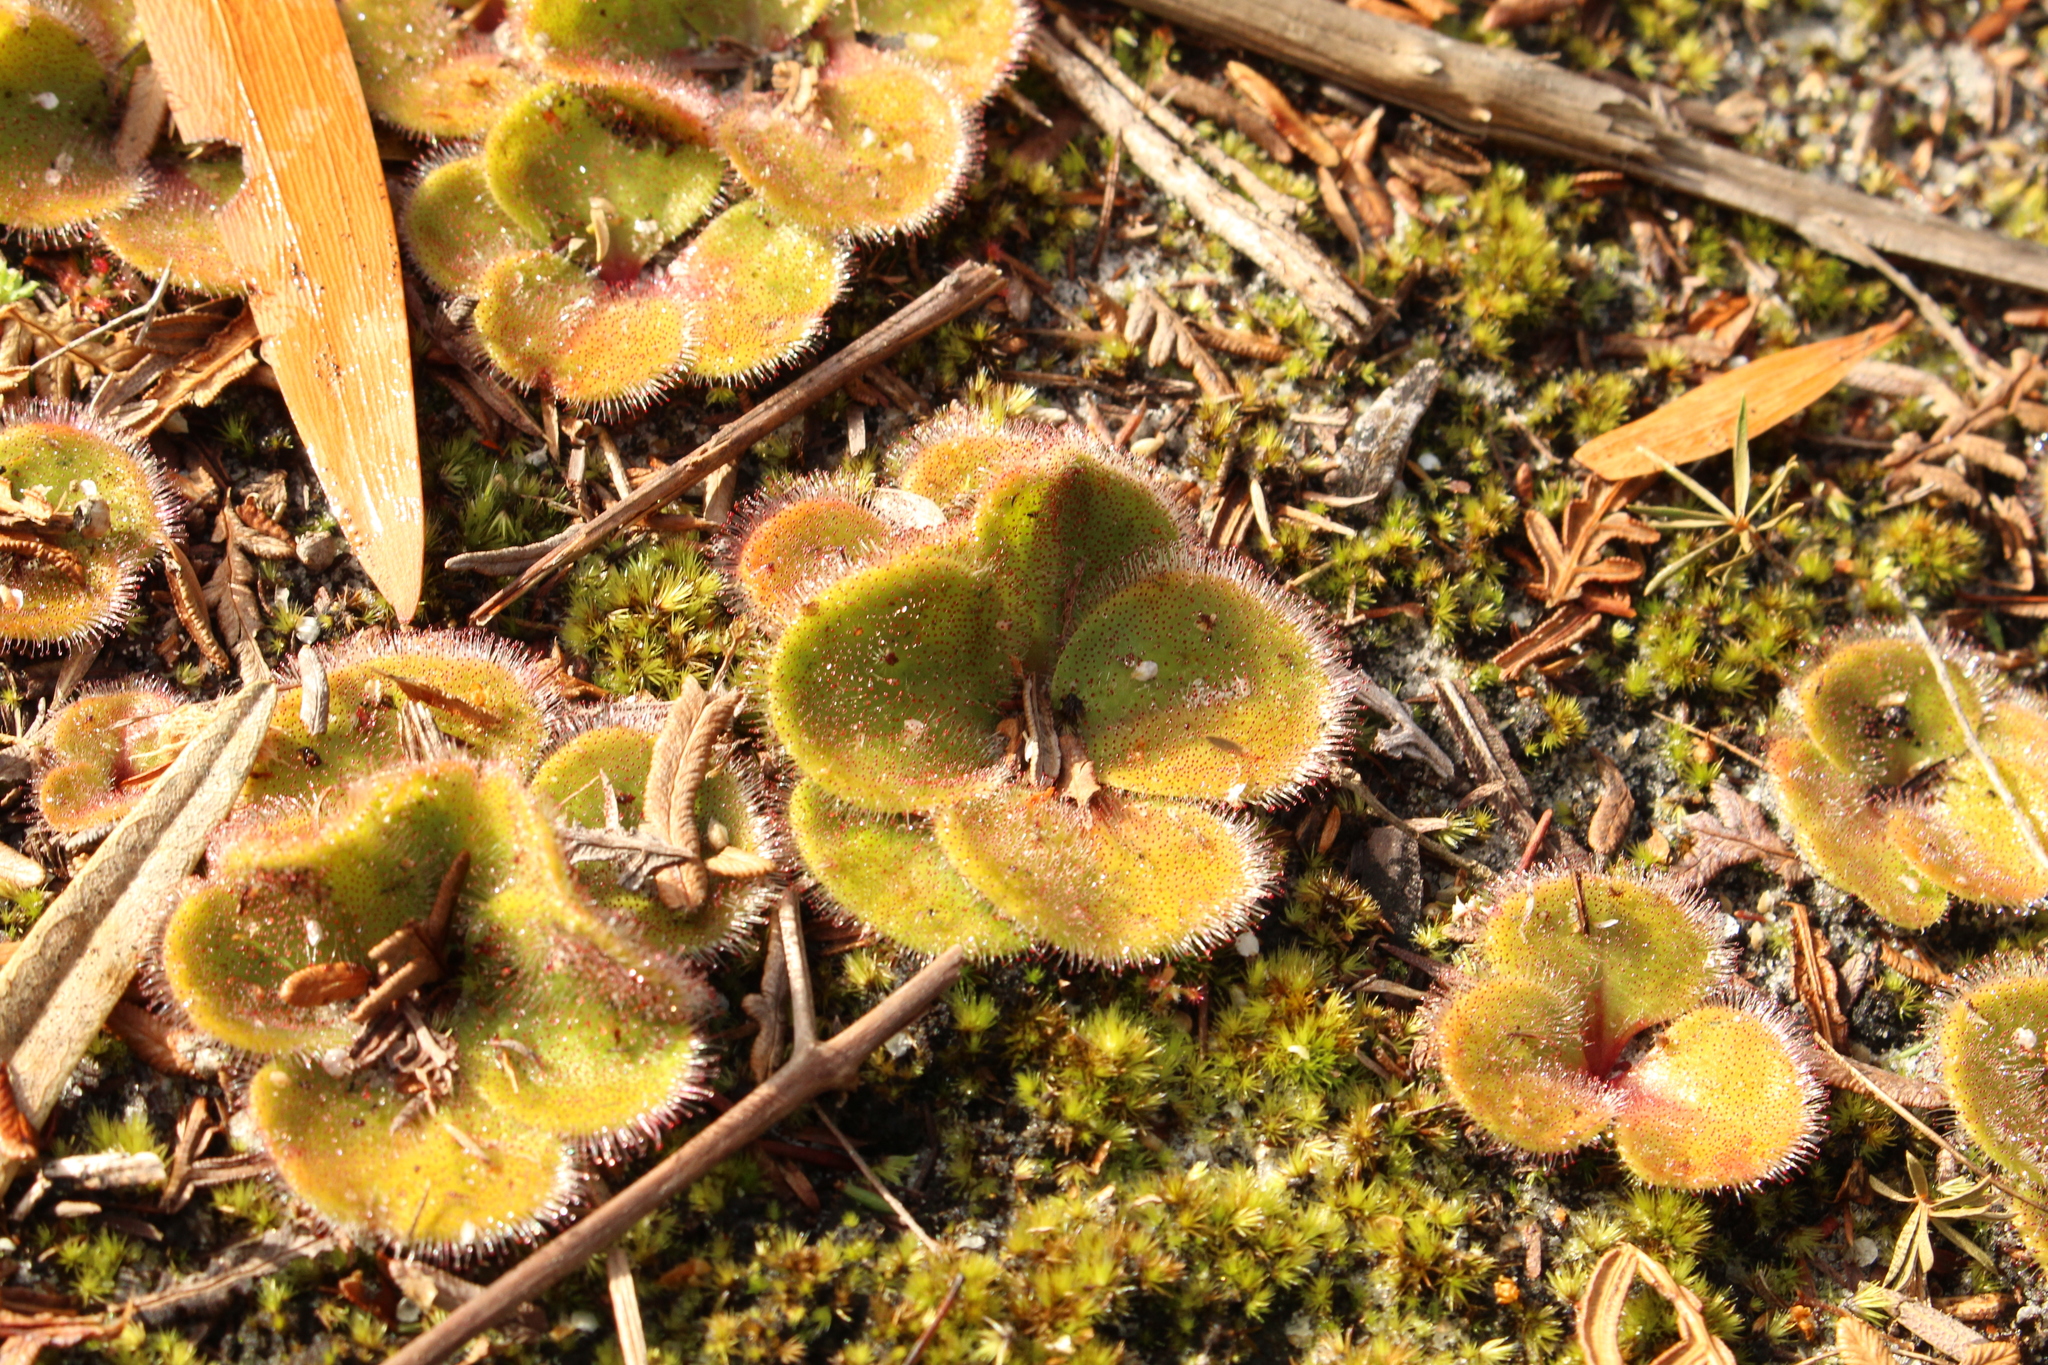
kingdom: Plantae
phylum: Tracheophyta
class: Magnoliopsida
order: Caryophyllales
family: Droseraceae
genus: Drosera
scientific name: Drosera erythrorhiza
